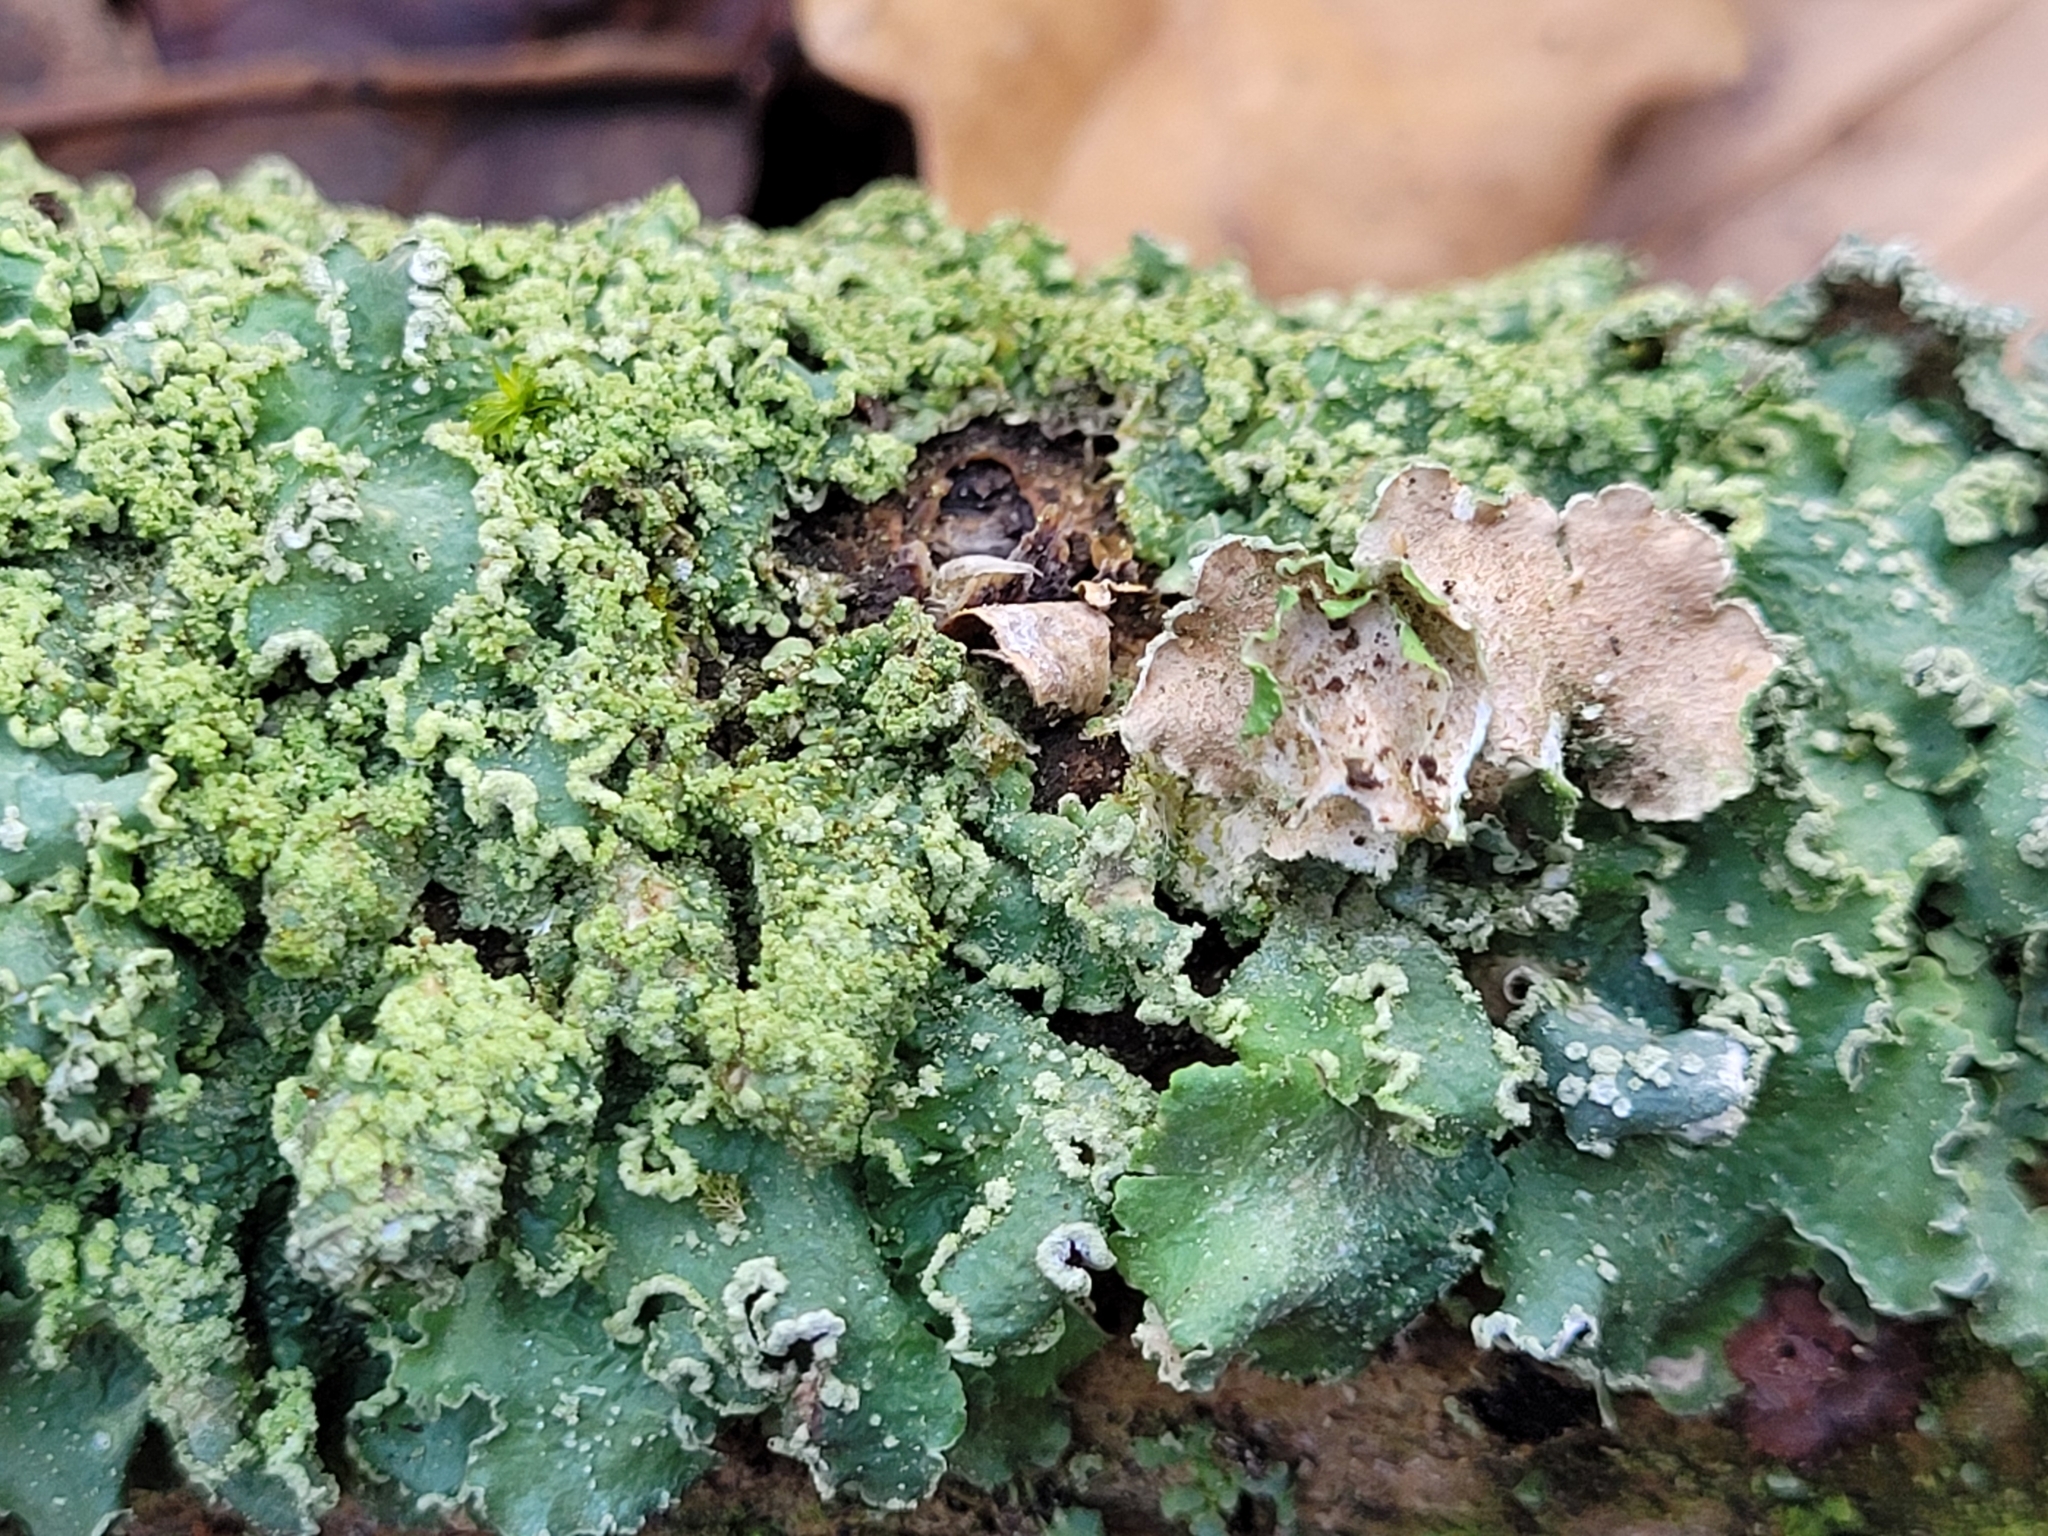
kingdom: Fungi
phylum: Ascomycota
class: Lecanoromycetes
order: Lecanorales
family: Parmeliaceae
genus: Punctelia
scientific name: Punctelia jeckeri
